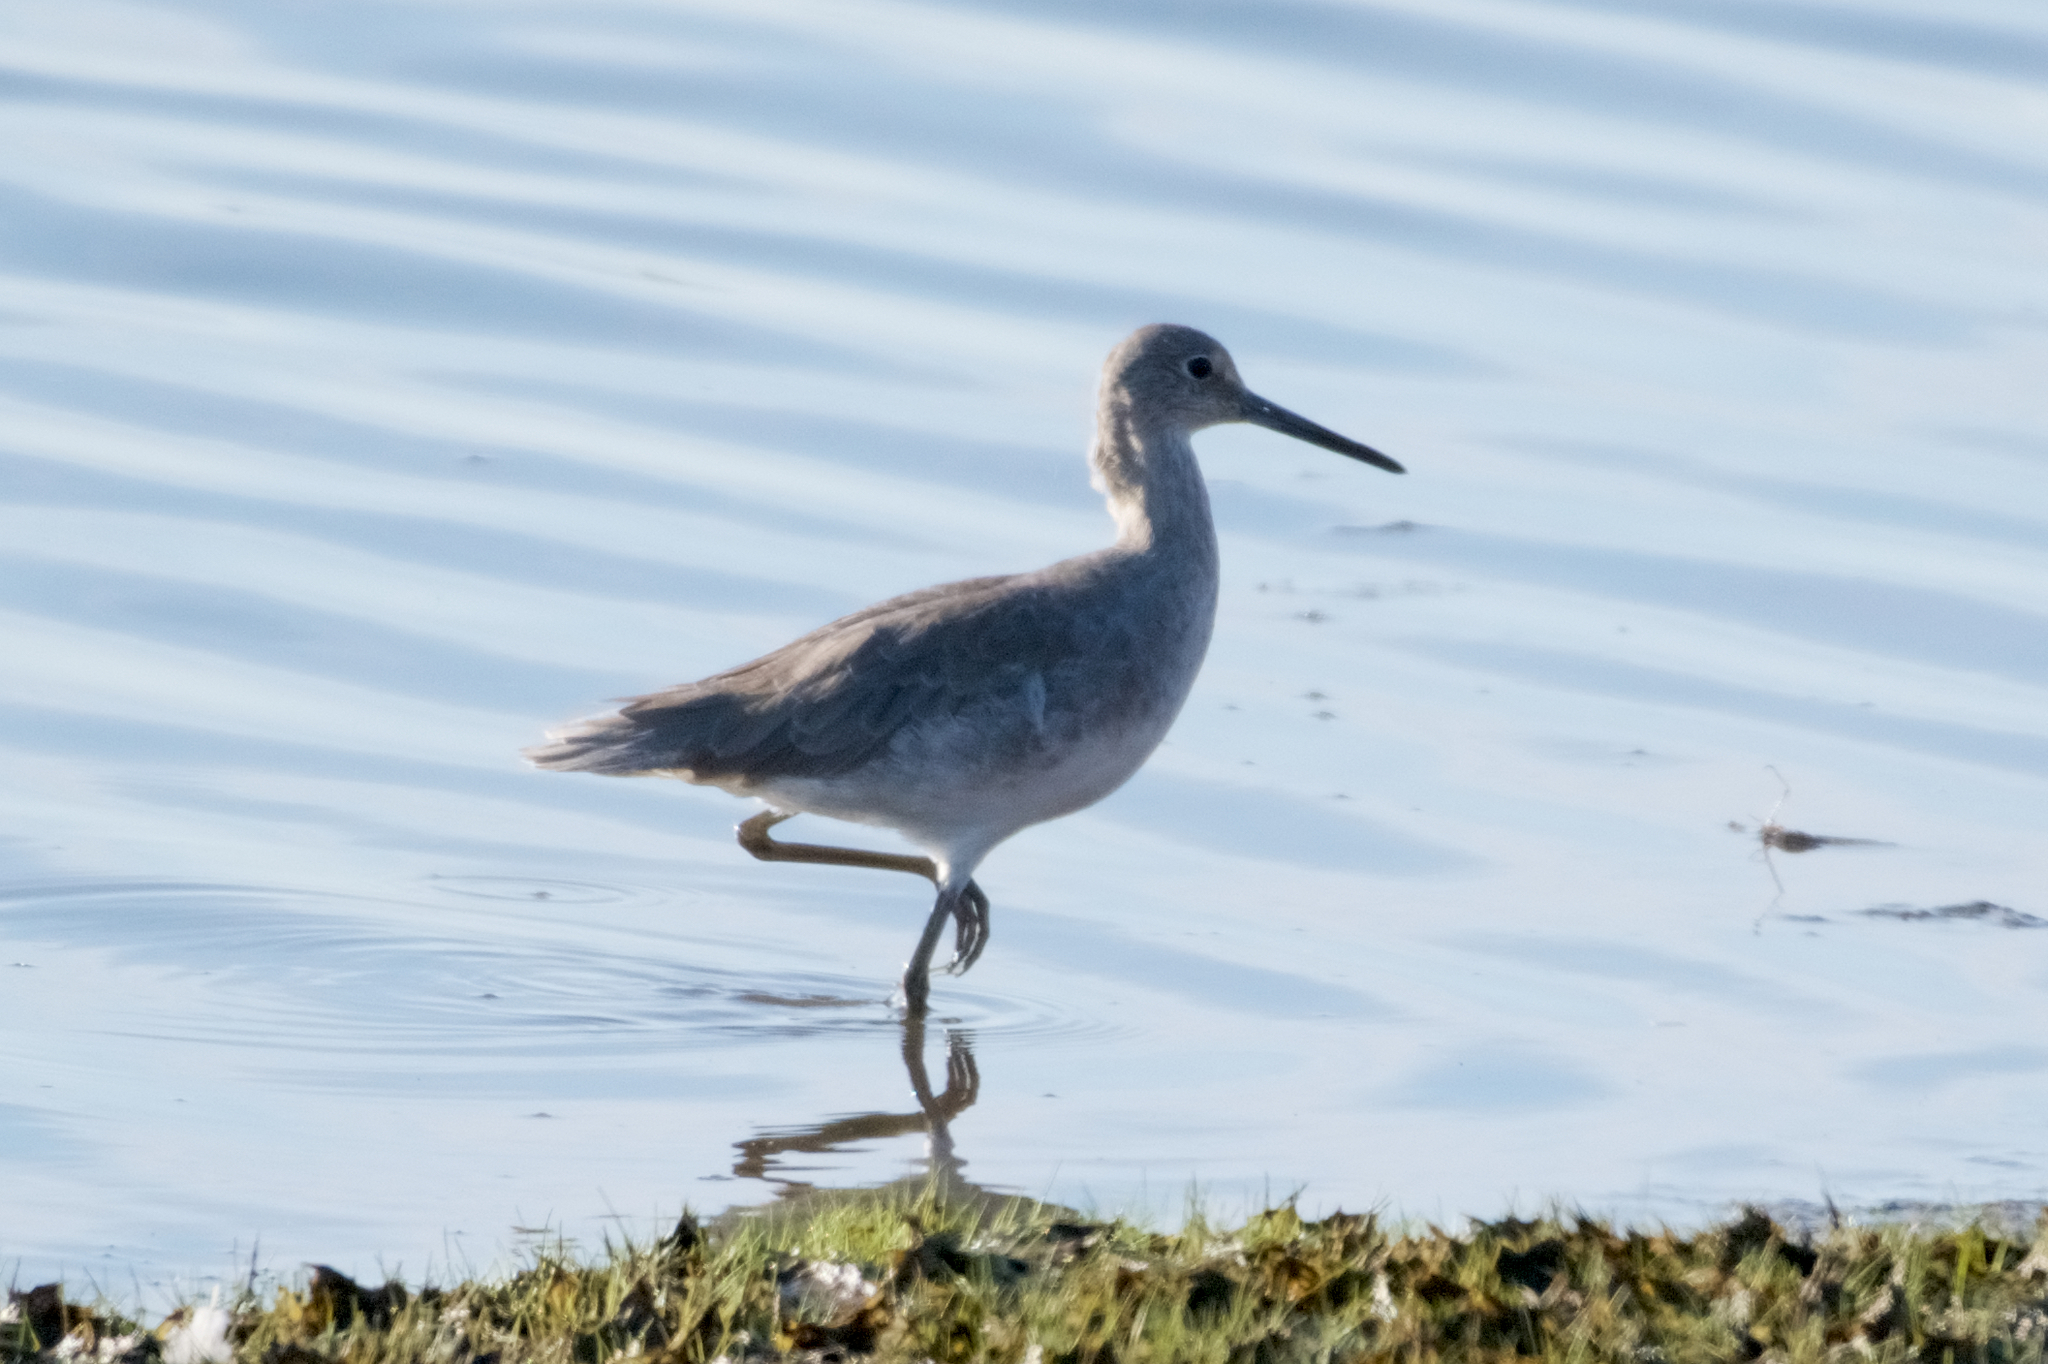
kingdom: Animalia
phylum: Chordata
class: Aves
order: Charadriiformes
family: Scolopacidae
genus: Tringa
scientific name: Tringa semipalmata
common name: Willet
